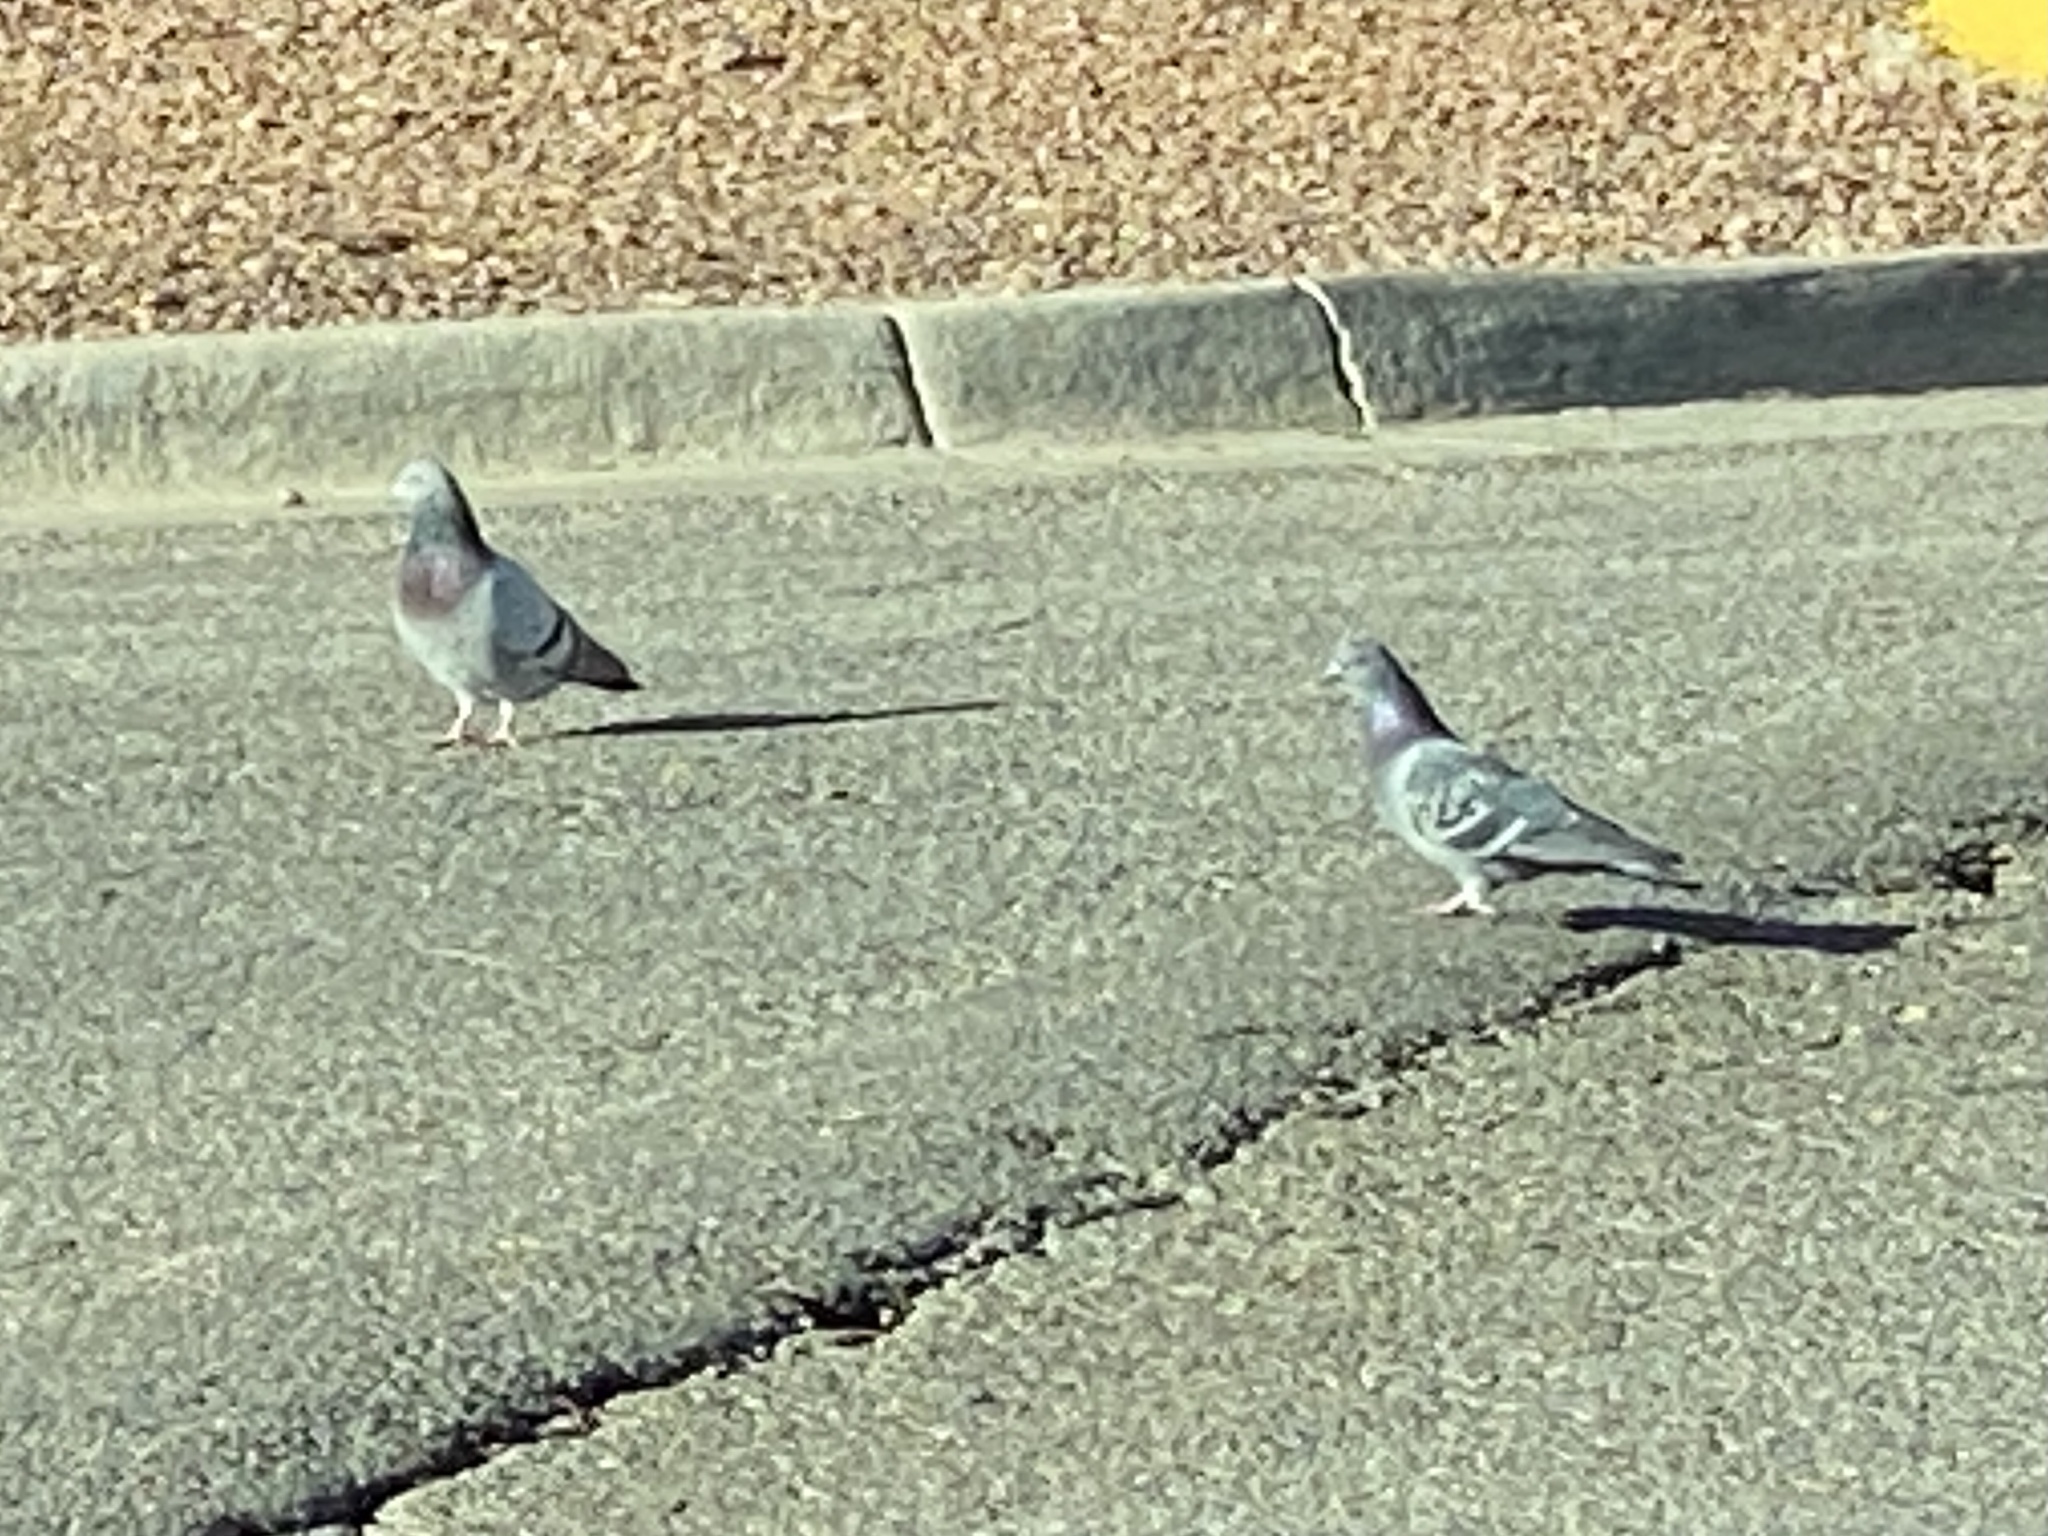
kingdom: Animalia
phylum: Chordata
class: Aves
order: Columbiformes
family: Columbidae
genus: Columba
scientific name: Columba livia
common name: Rock pigeon
